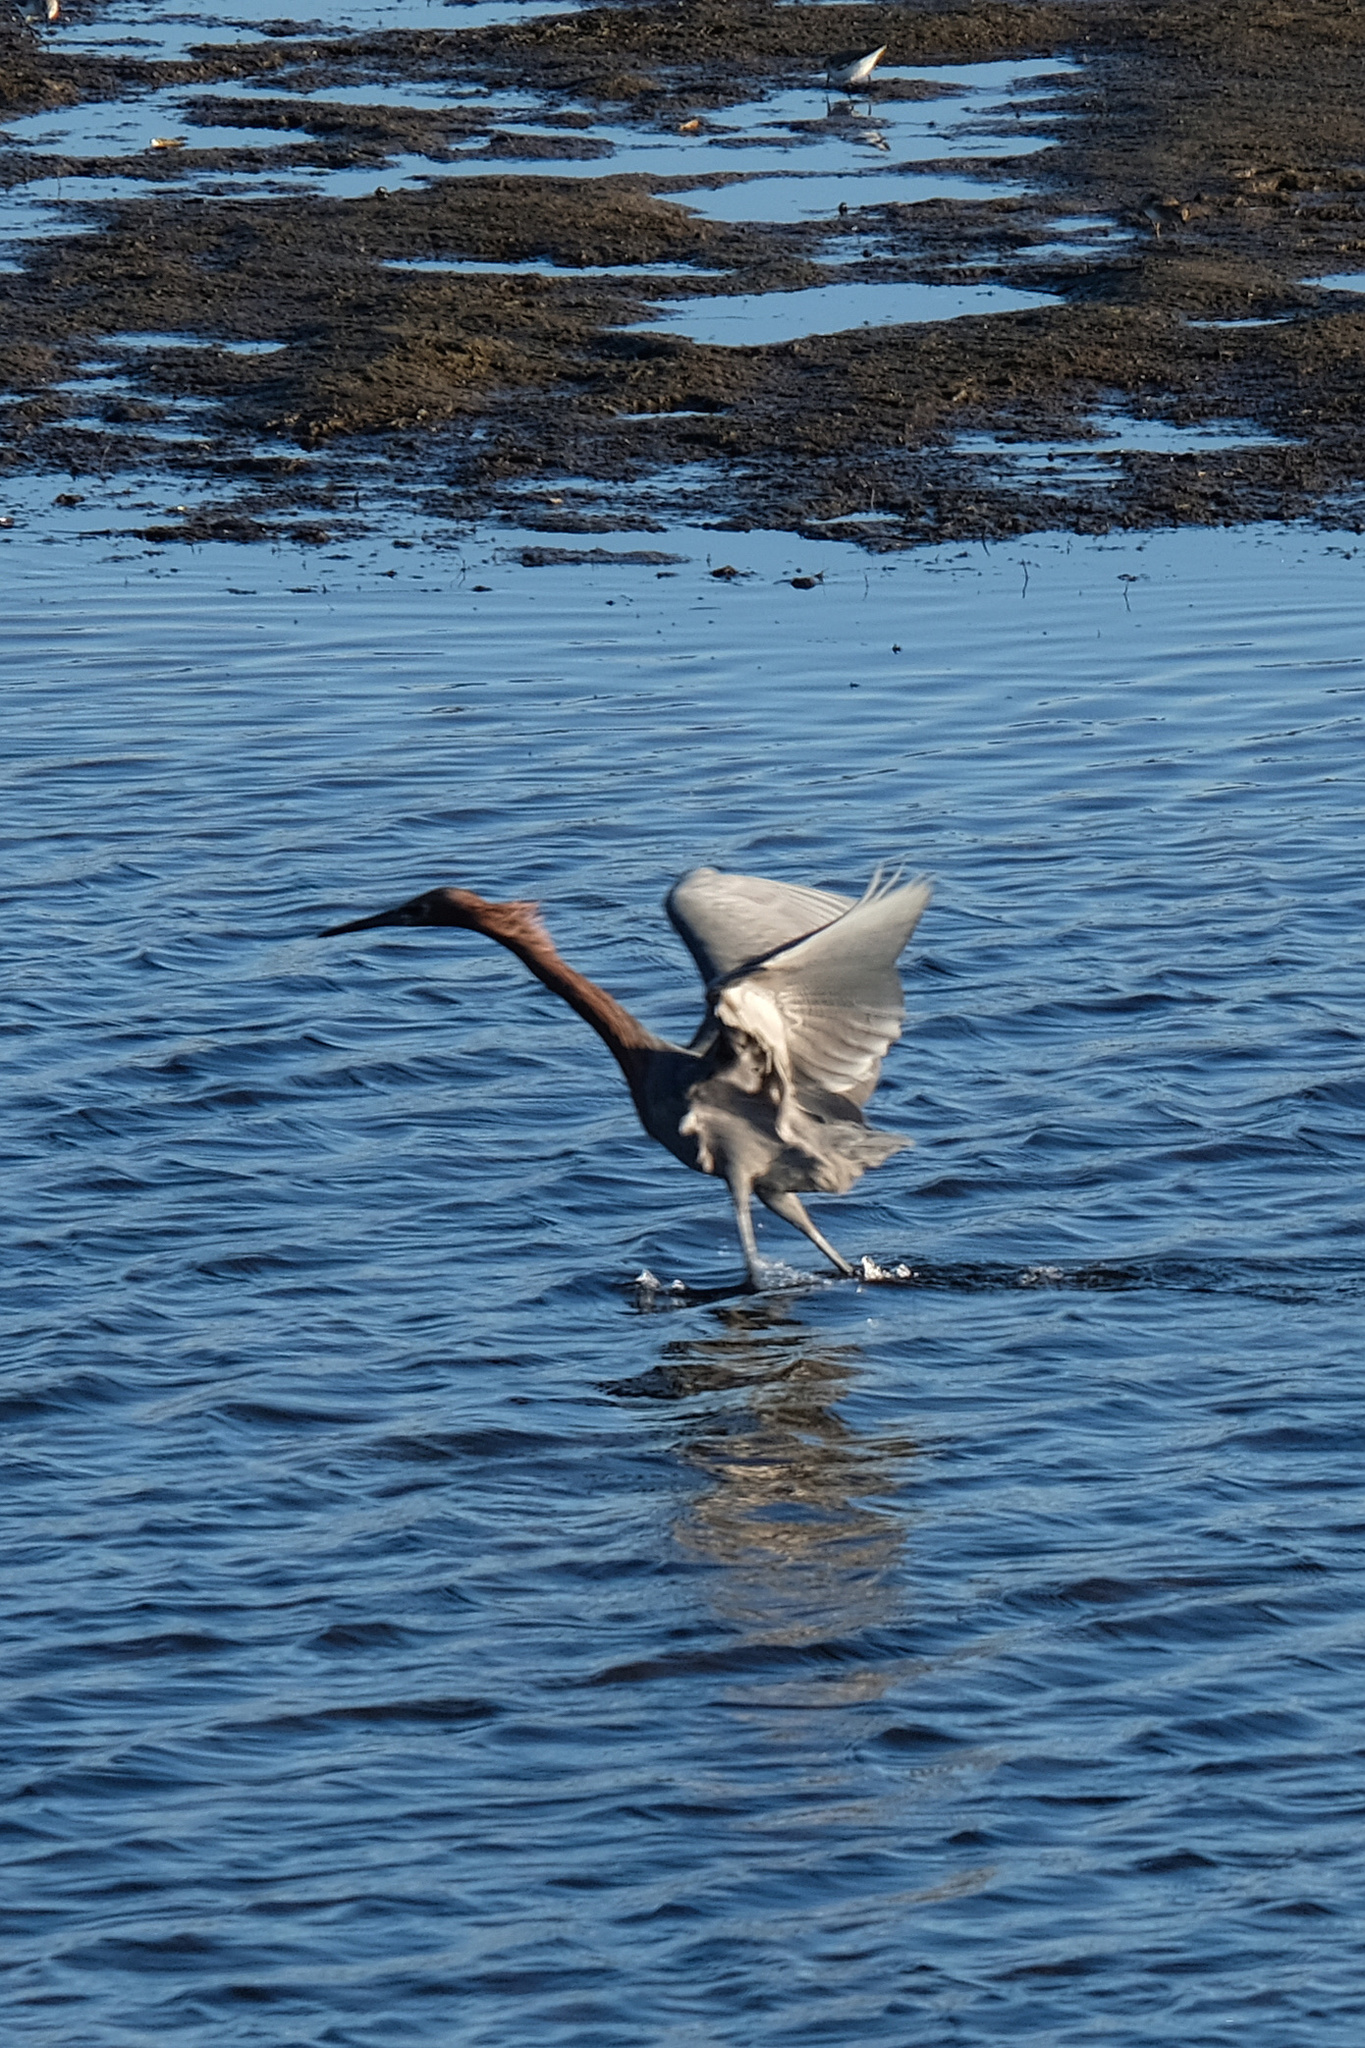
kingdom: Animalia
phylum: Chordata
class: Aves
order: Pelecaniformes
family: Ardeidae
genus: Egretta
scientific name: Egretta rufescens
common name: Reddish egret
